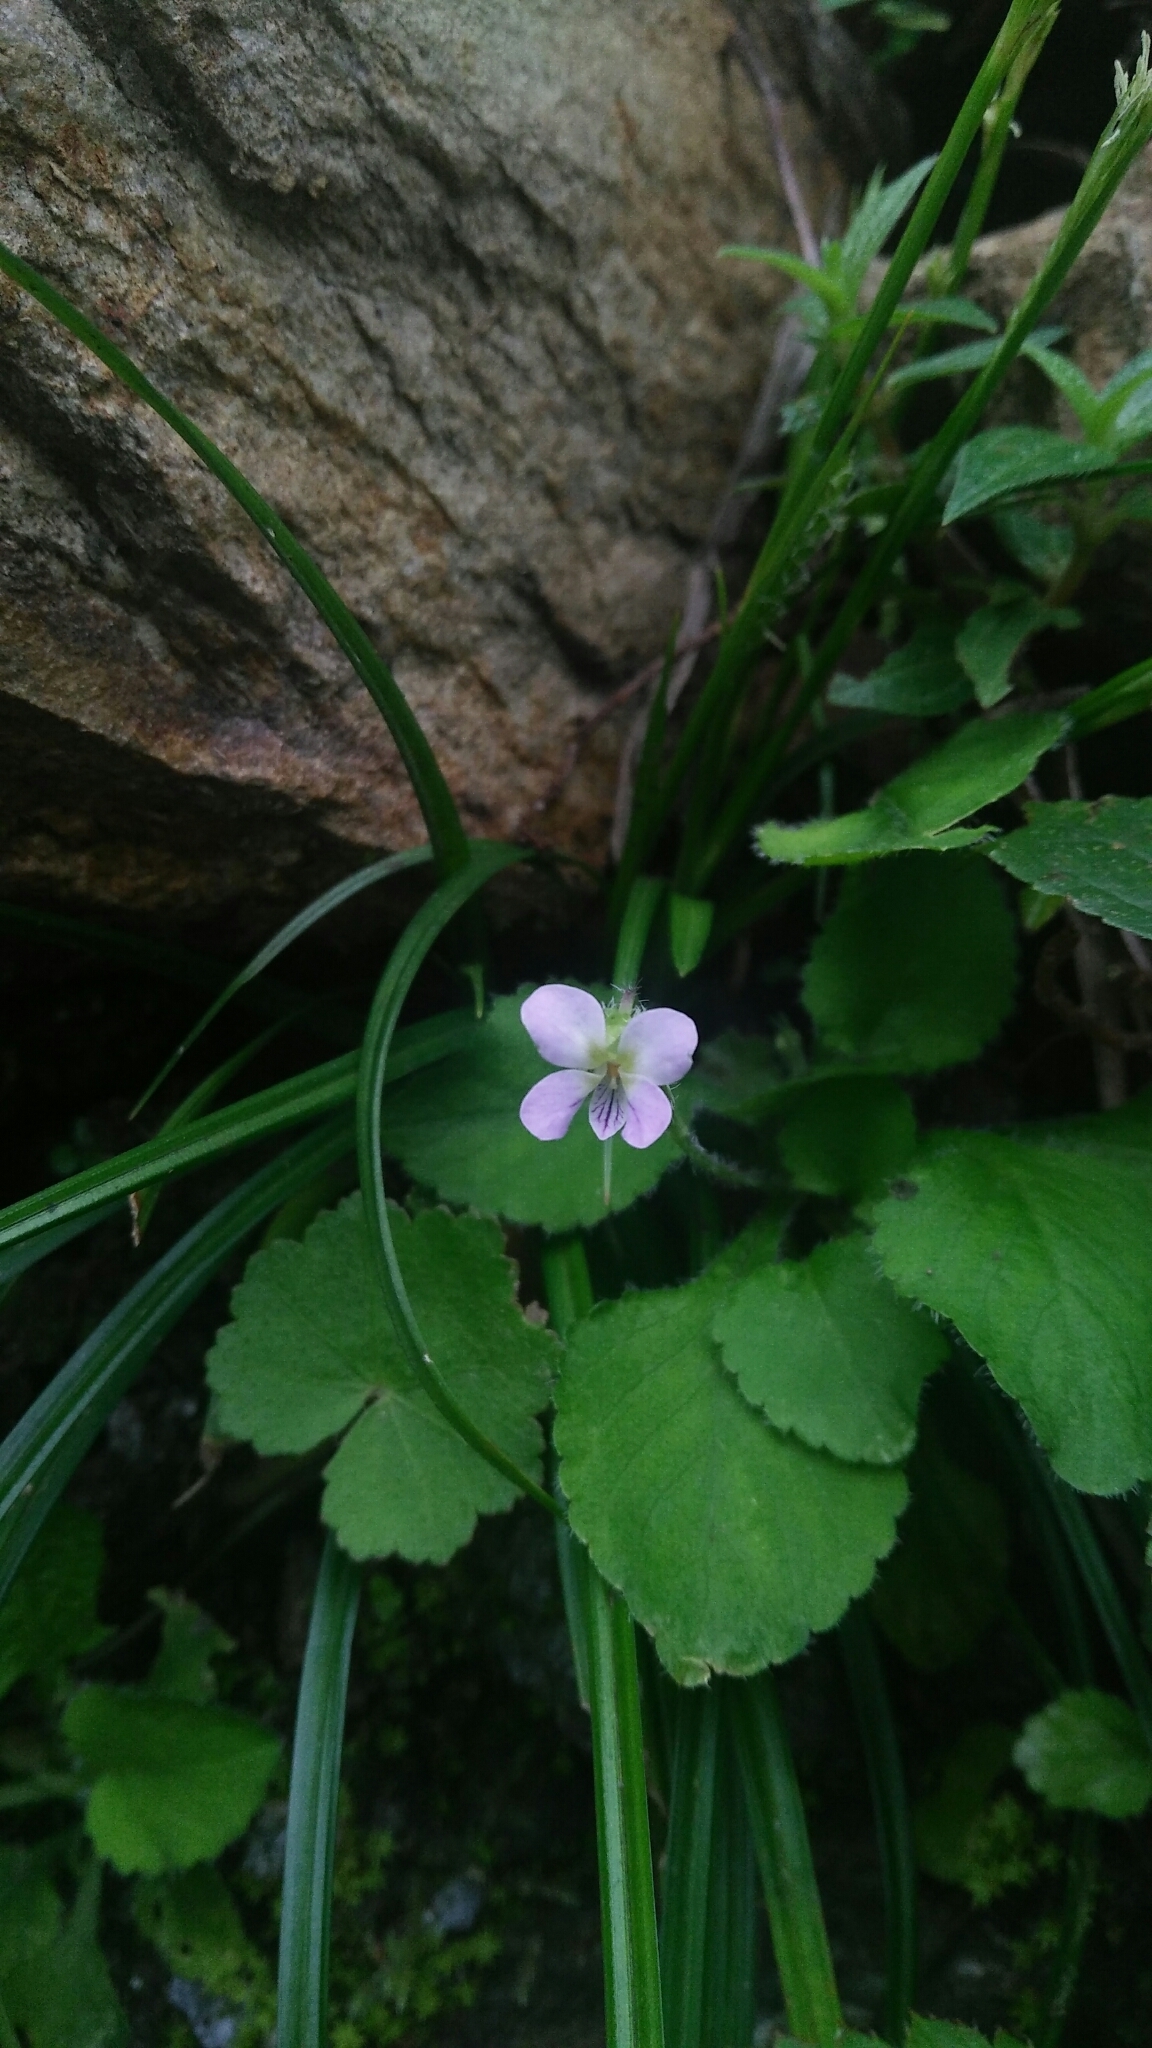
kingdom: Plantae
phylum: Tracheophyta
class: Magnoliopsida
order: Malpighiales
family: Violaceae
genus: Viola
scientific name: Viola diffusa
